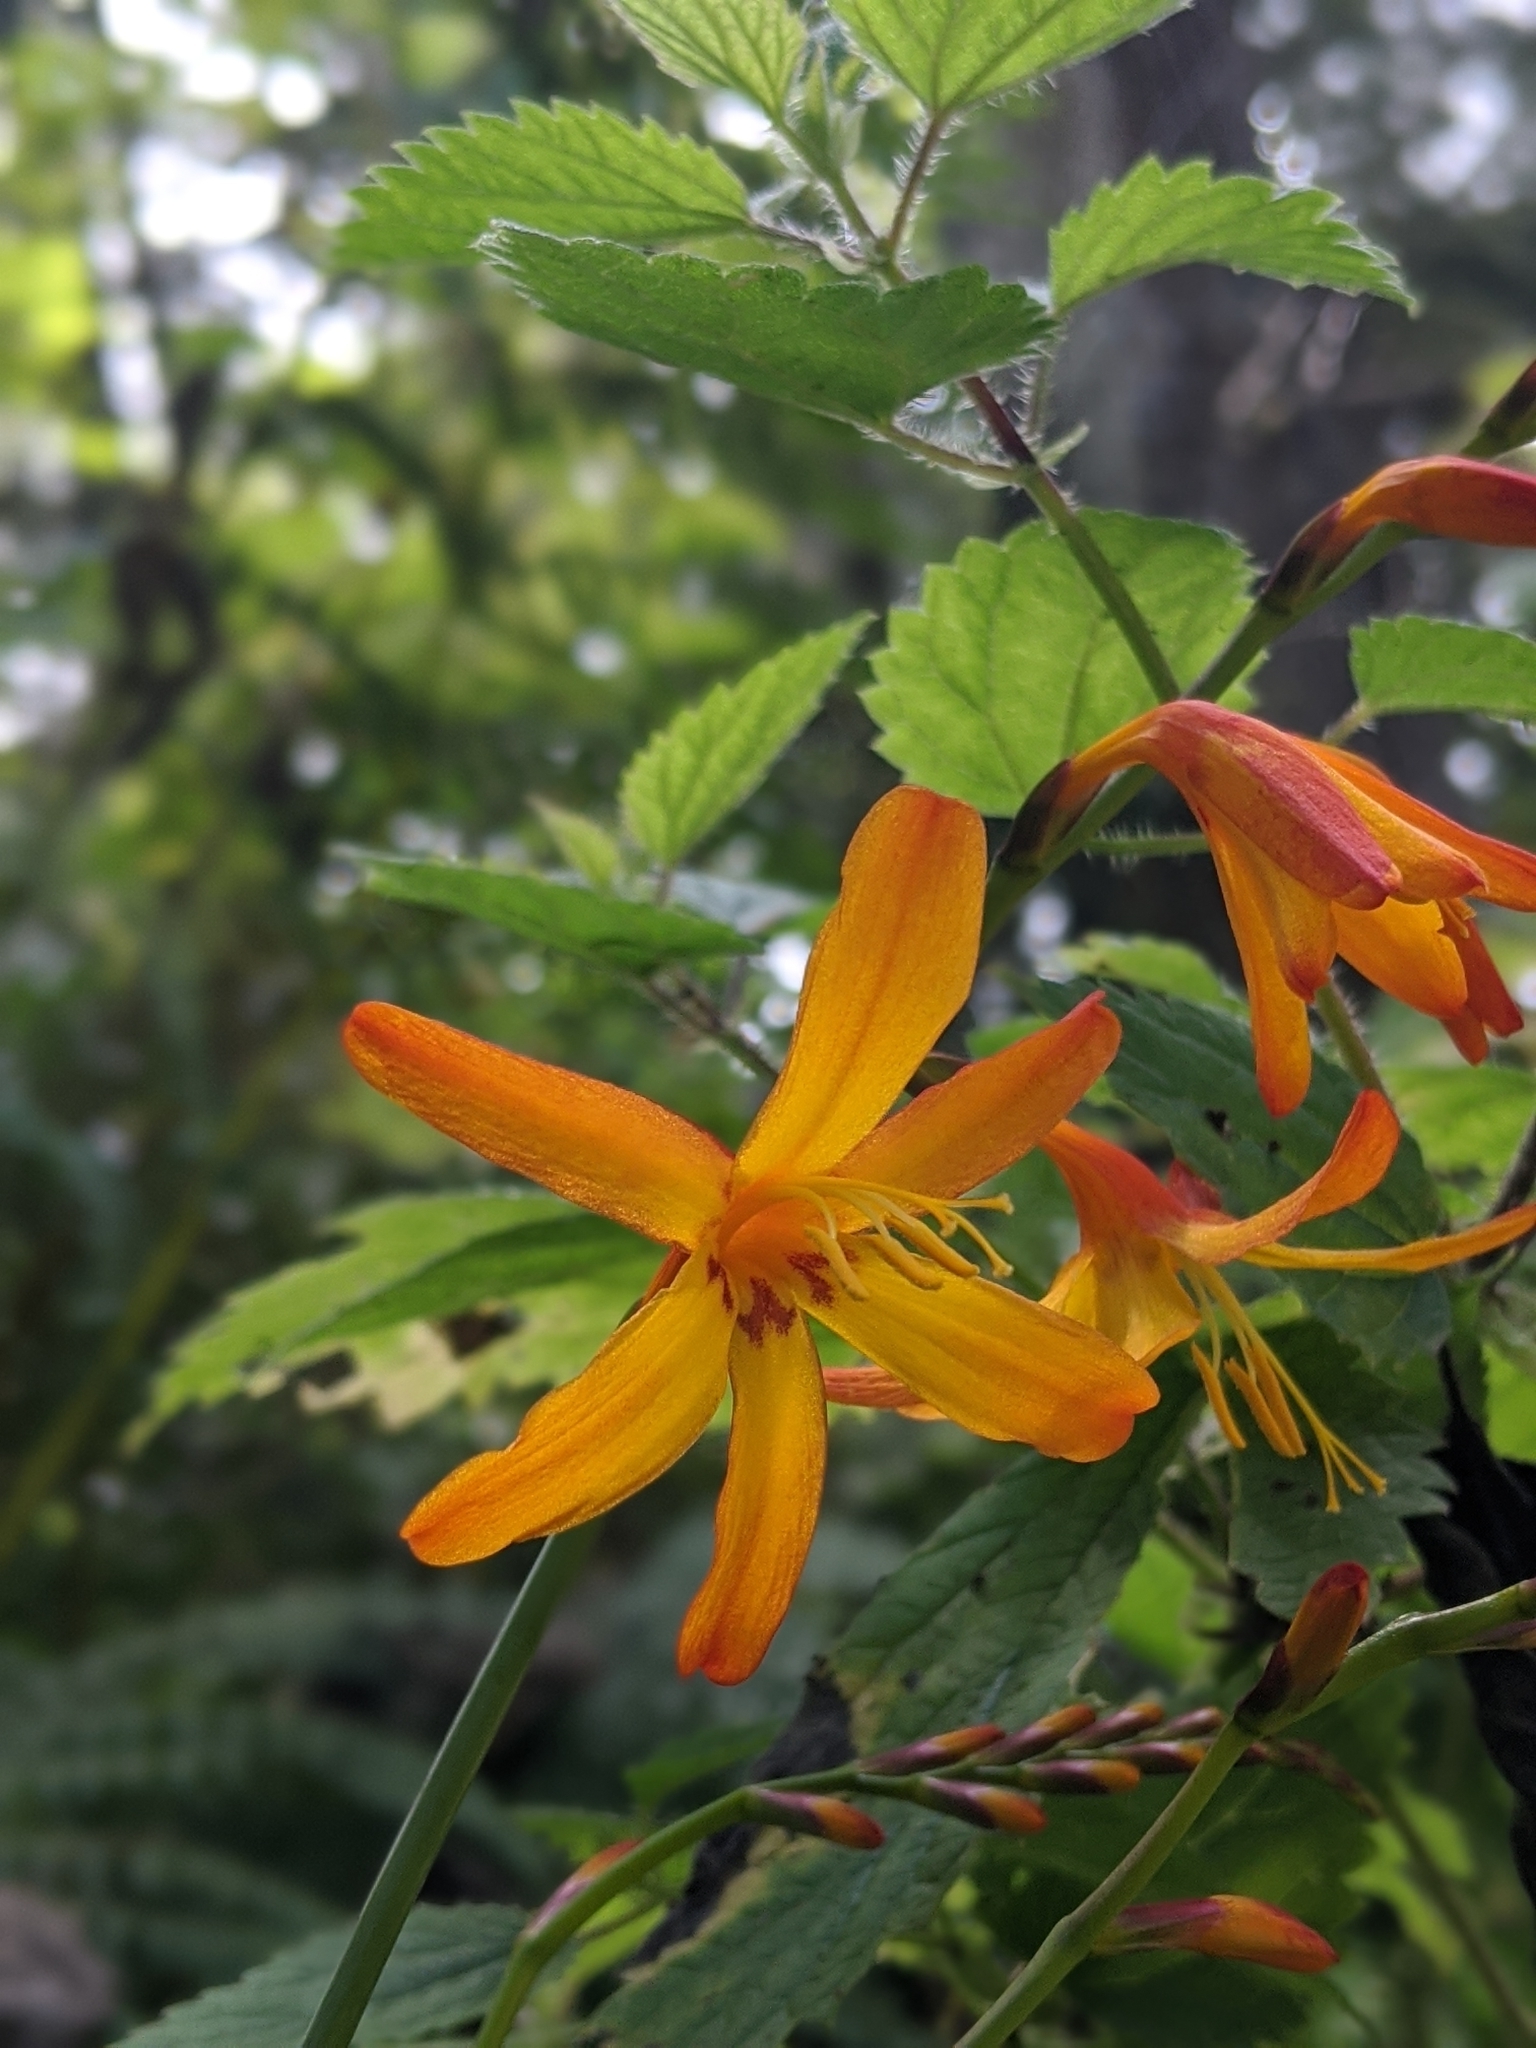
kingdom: Plantae
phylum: Tracheophyta
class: Liliopsida
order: Asparagales
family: Iridaceae
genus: Crocosmia
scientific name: Crocosmia crocosmiiflora
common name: Montbretia
